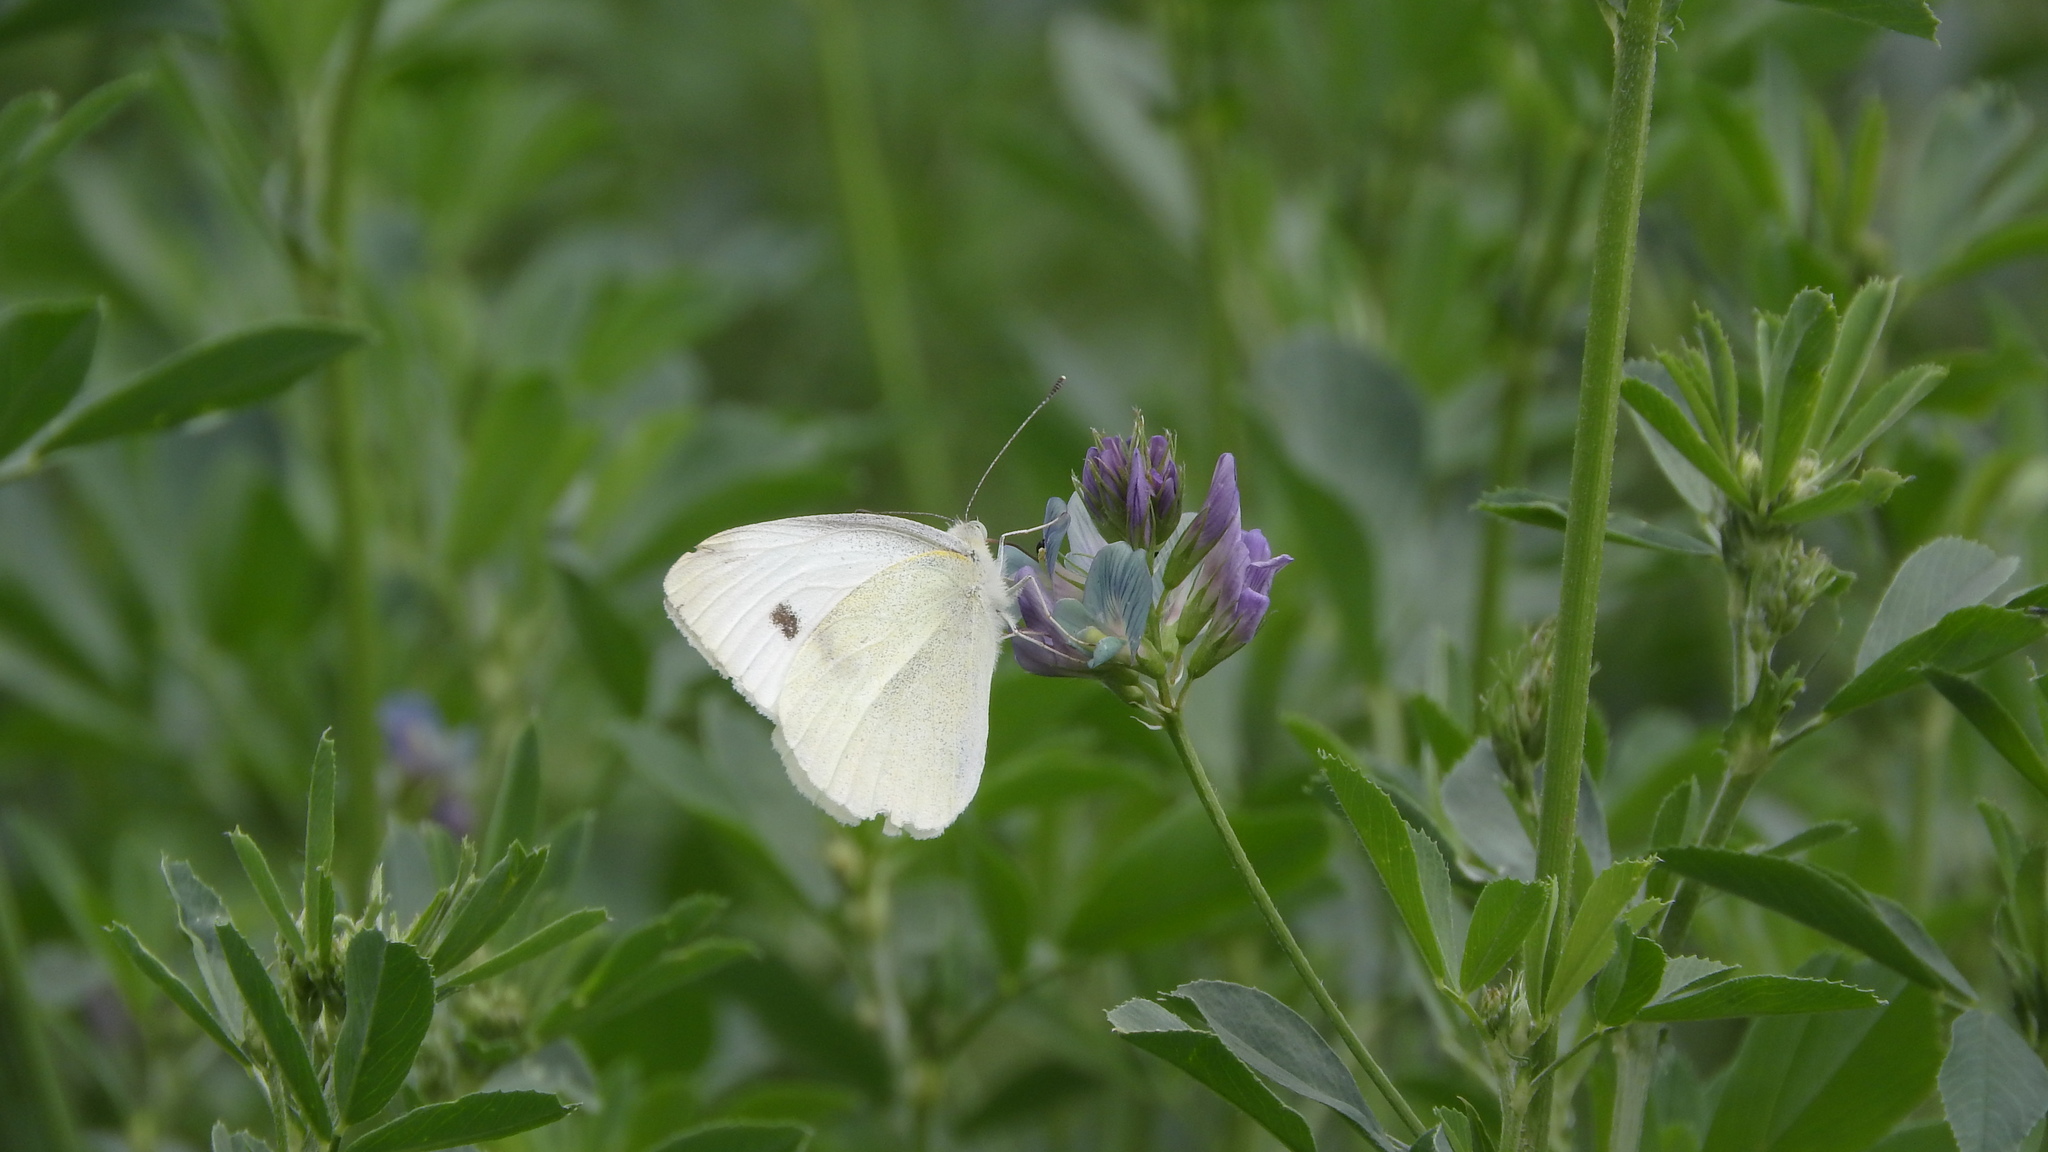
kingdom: Animalia
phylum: Arthropoda
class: Insecta
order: Lepidoptera
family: Pieridae
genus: Pieris
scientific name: Pieris rapae
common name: Small white
